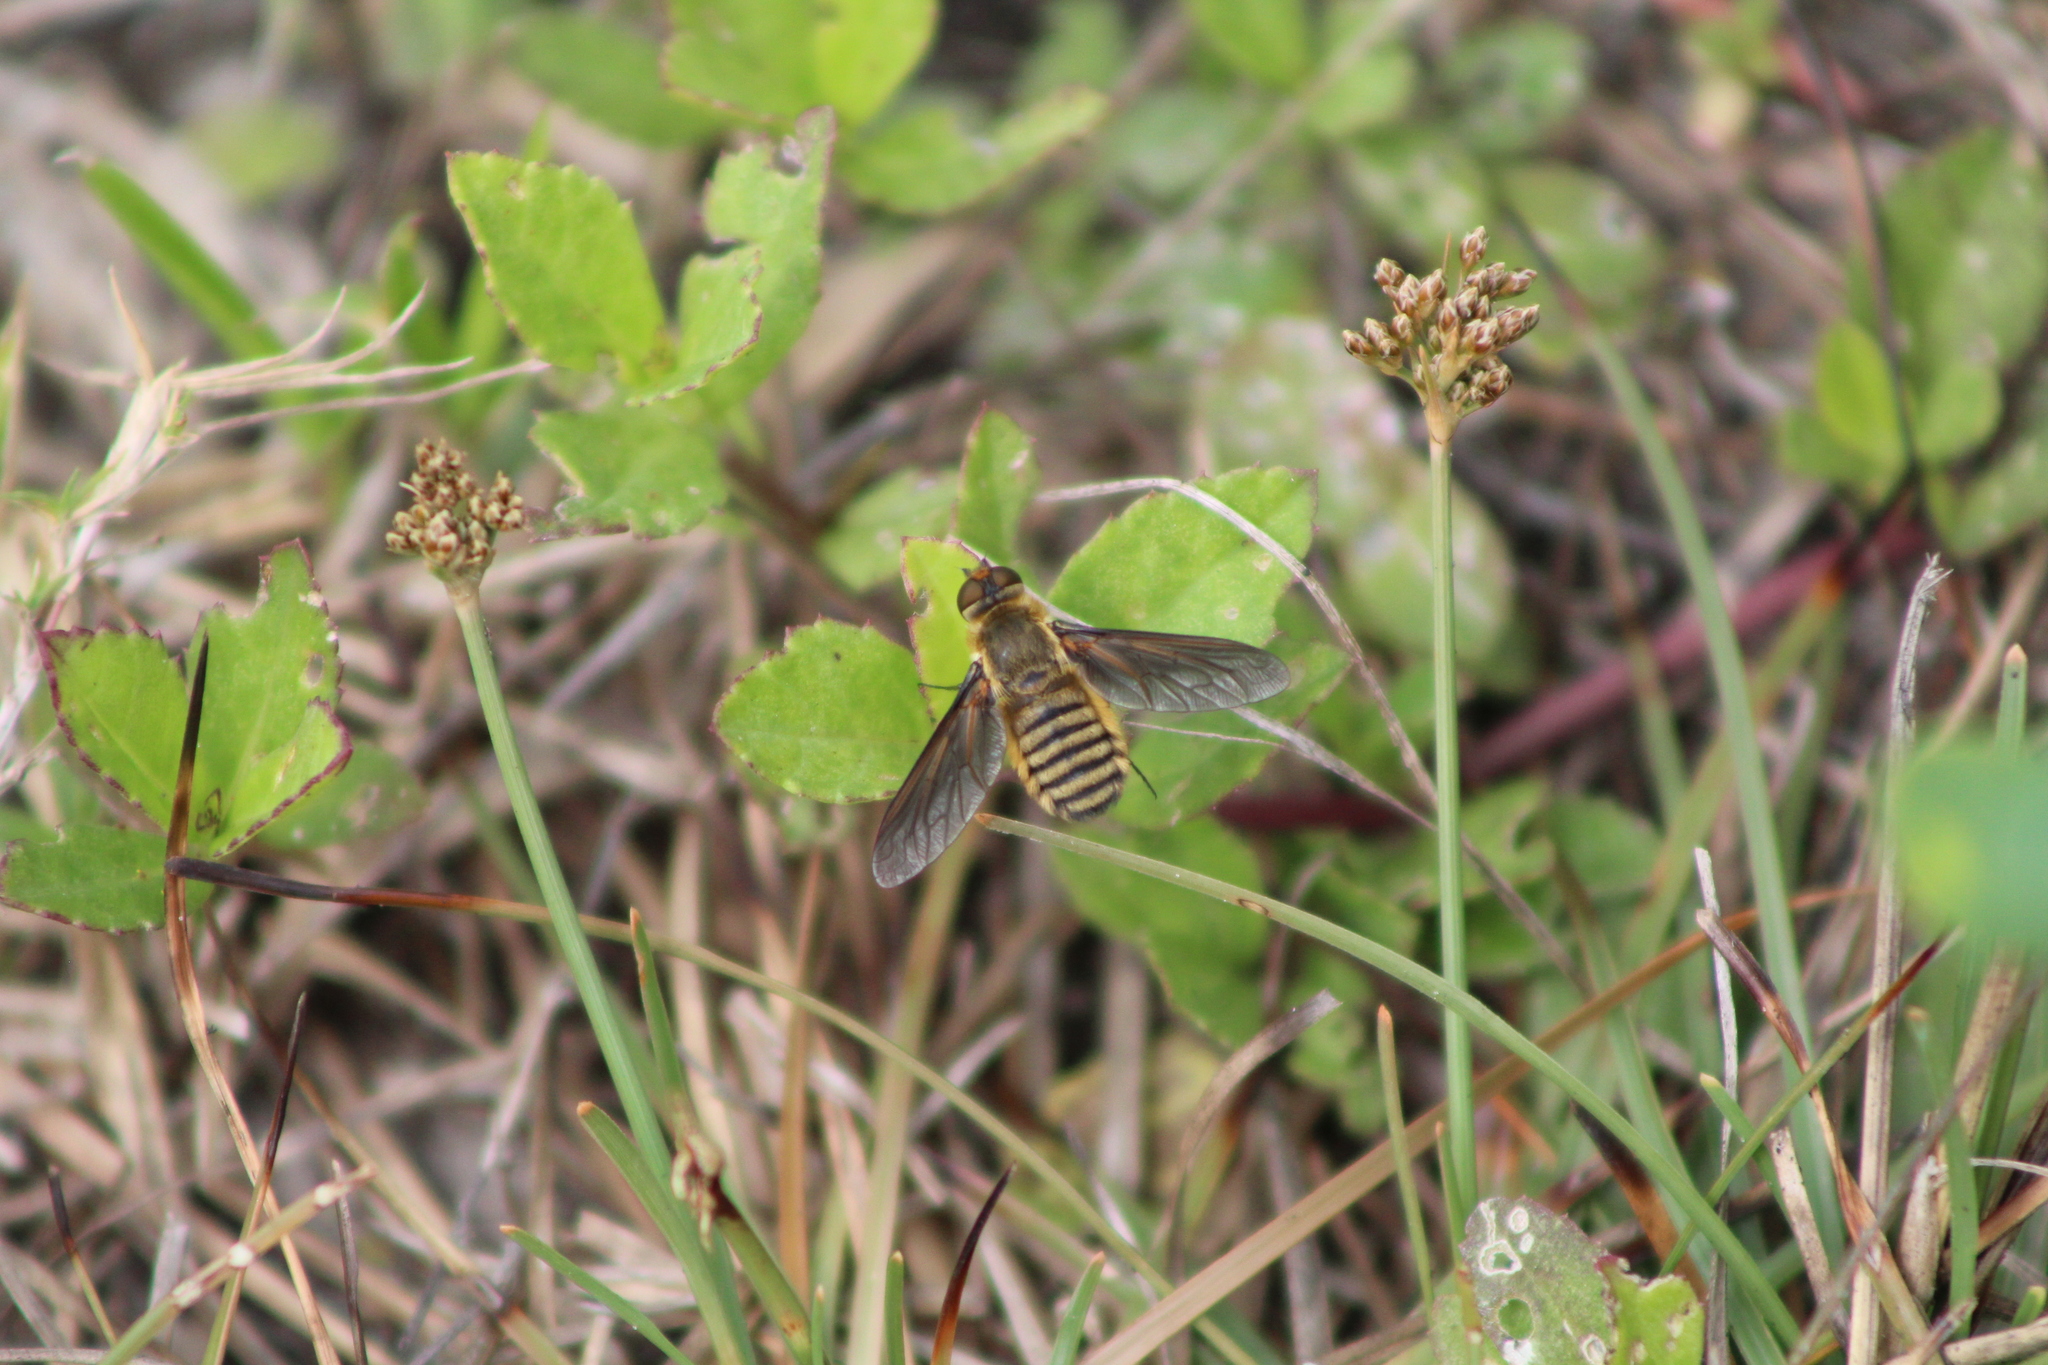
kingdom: Animalia
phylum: Arthropoda
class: Insecta
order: Diptera
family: Bombyliidae
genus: Poecilanthrax
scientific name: Poecilanthrax lucifer
